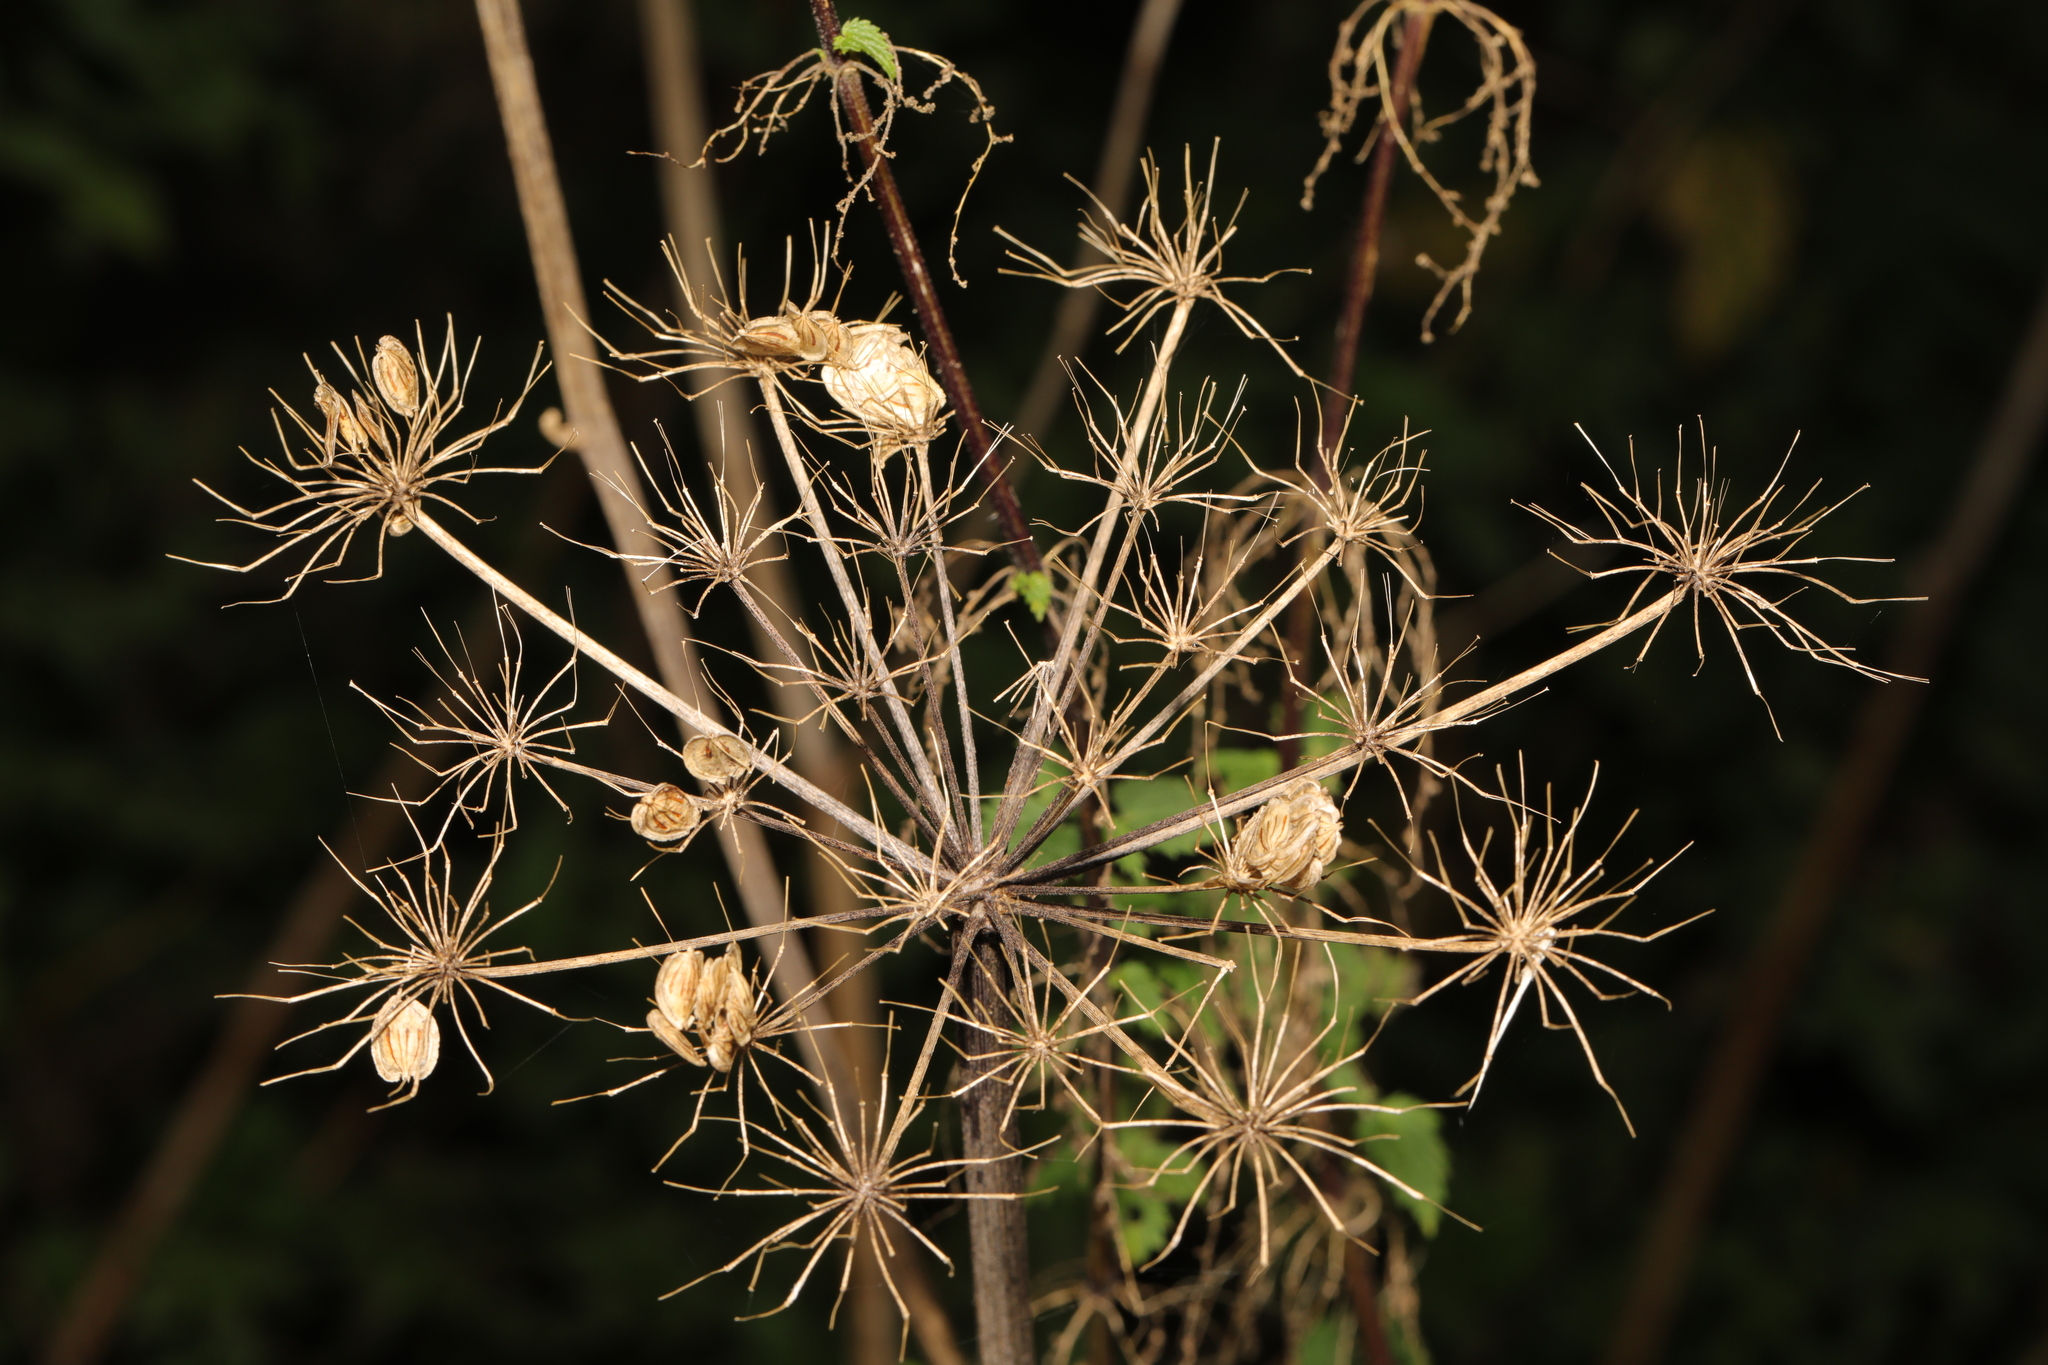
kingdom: Plantae
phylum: Tracheophyta
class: Magnoliopsida
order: Apiales
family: Apiaceae
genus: Heracleum
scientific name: Heracleum sphondylium
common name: Hogweed
